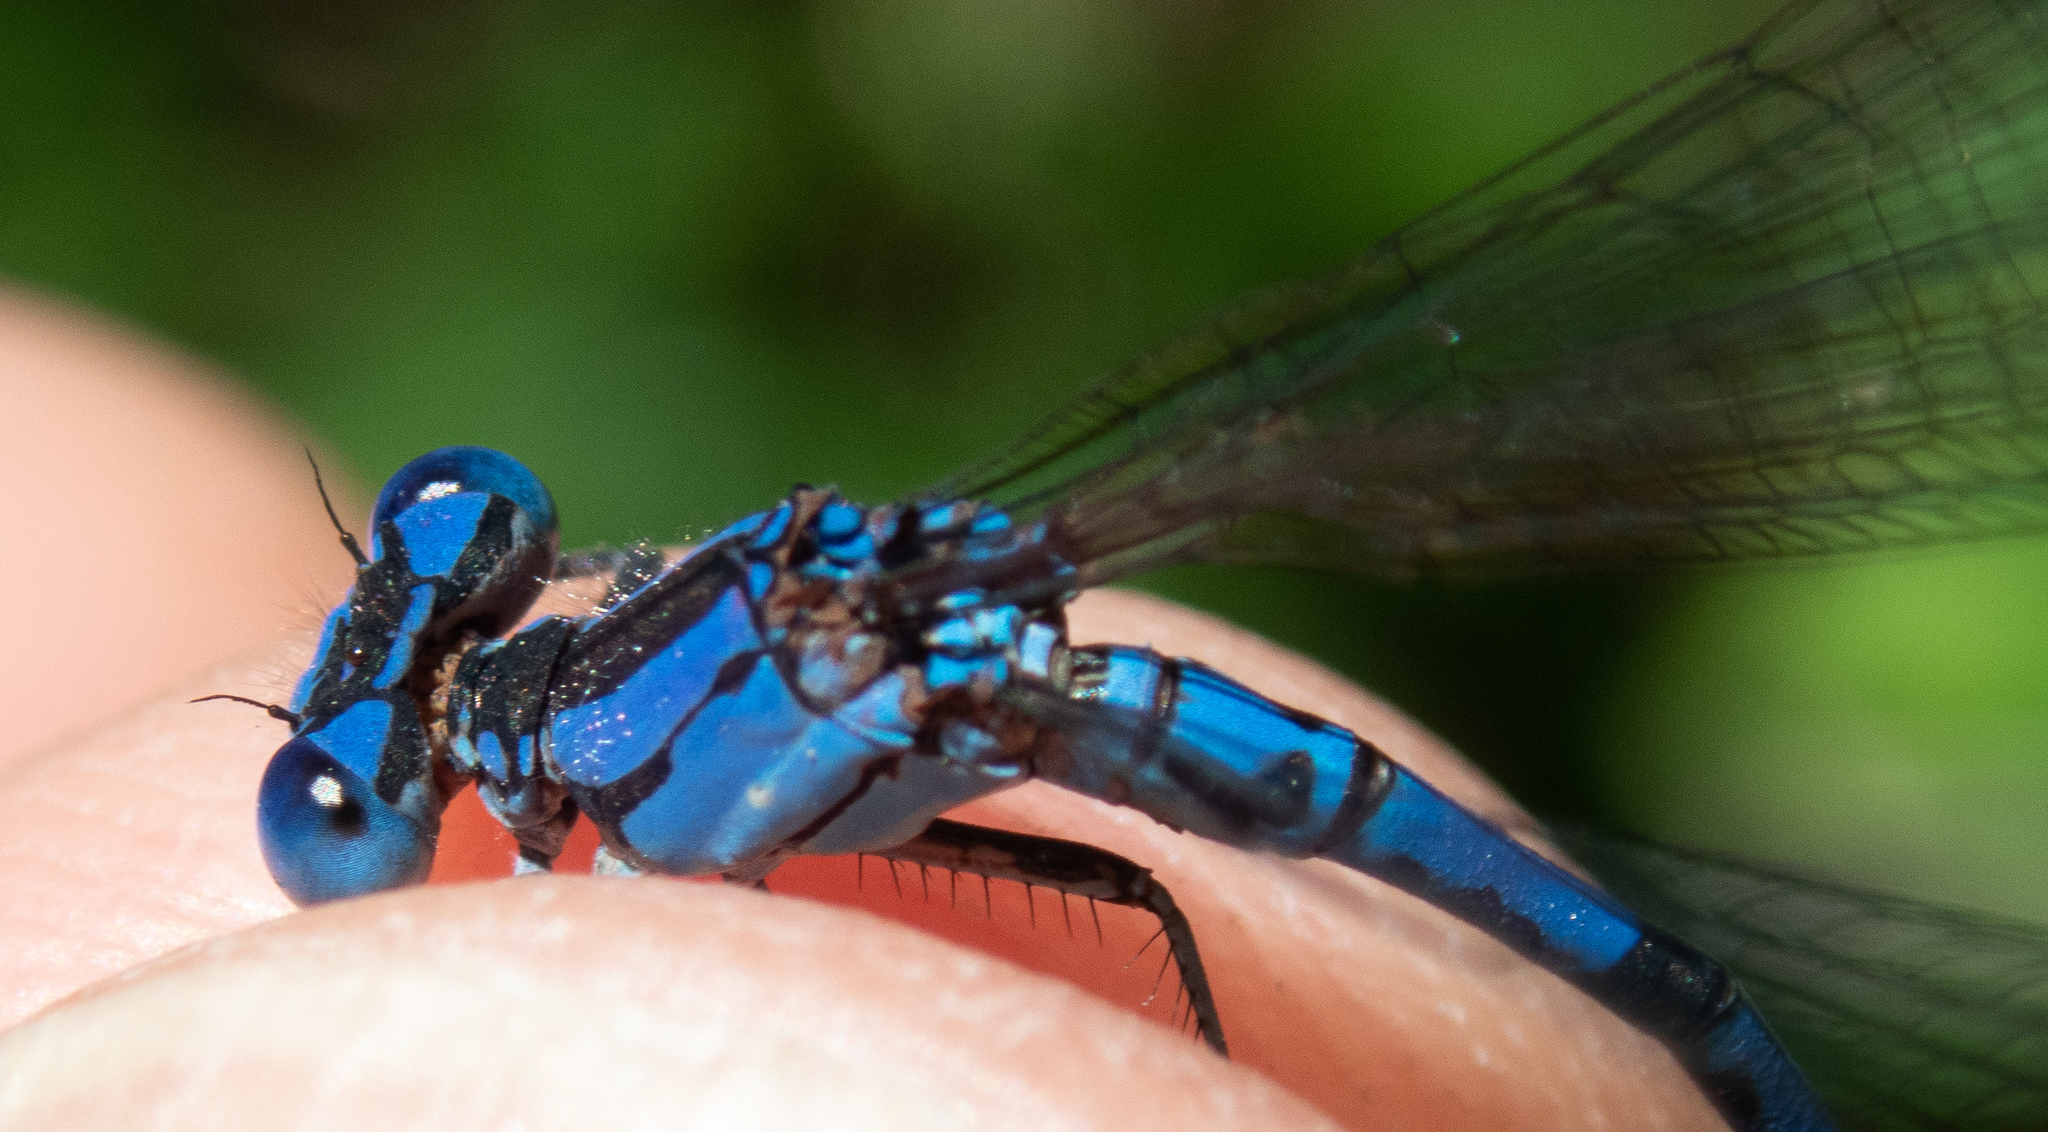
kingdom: Animalia
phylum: Arthropoda
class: Insecta
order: Odonata
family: Coenagrionidae
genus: Argia
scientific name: Argia vivida
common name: Vivid dancer
